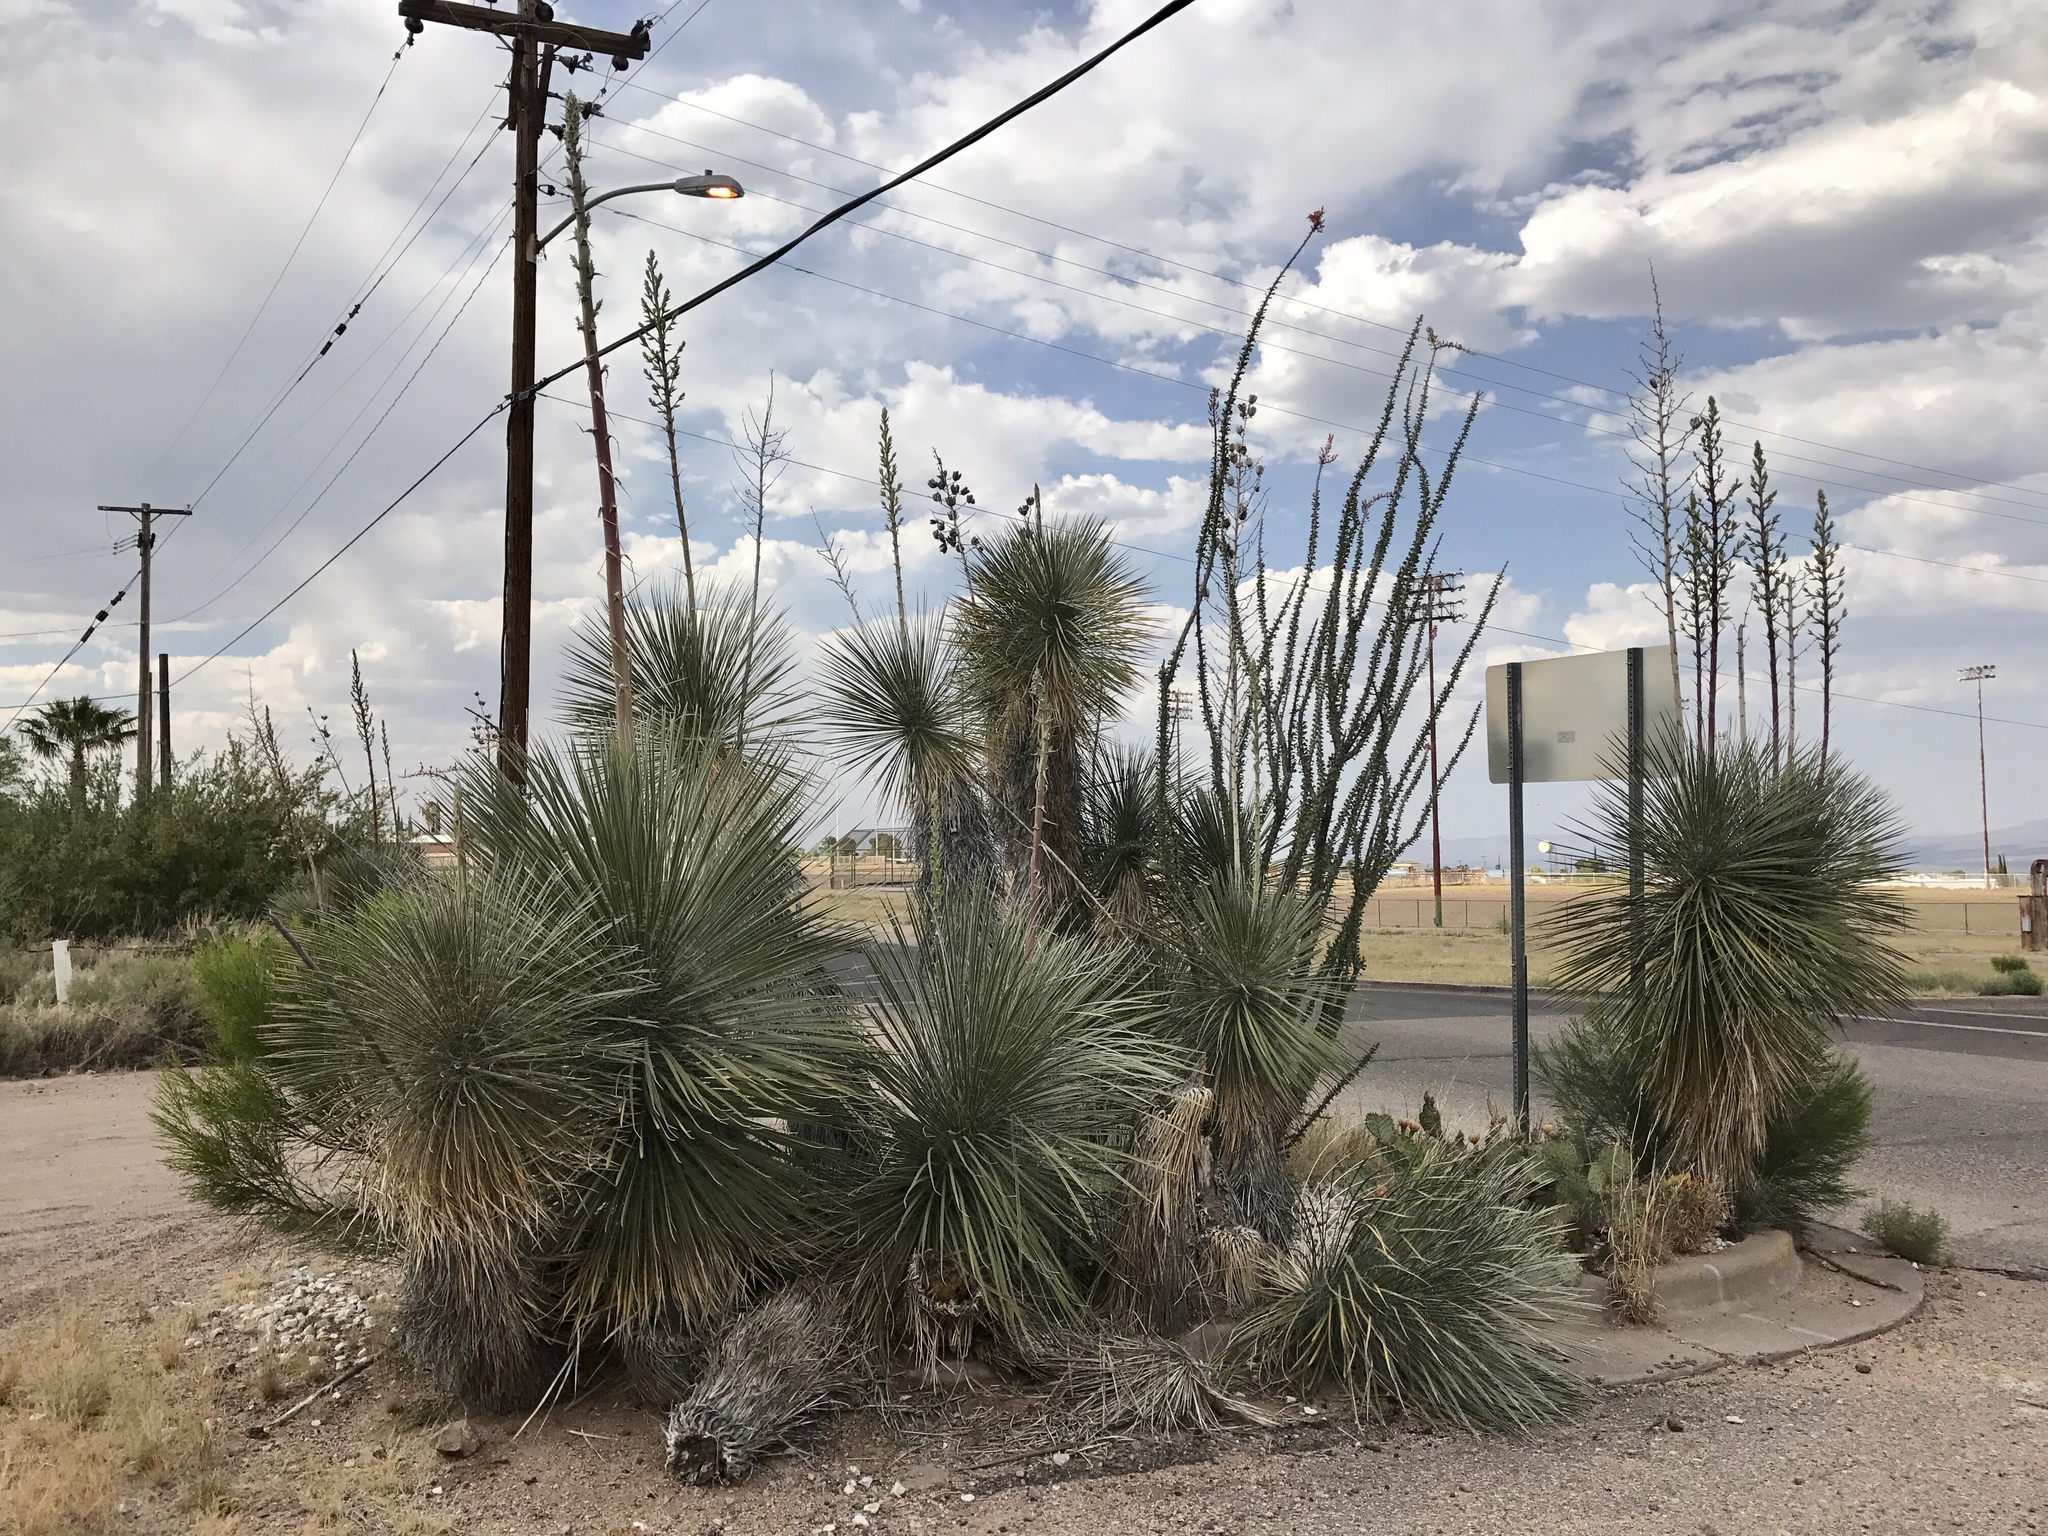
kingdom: Plantae
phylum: Tracheophyta
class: Liliopsida
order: Asparagales
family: Asparagaceae
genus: Yucca
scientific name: Yucca elata
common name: Palmella
